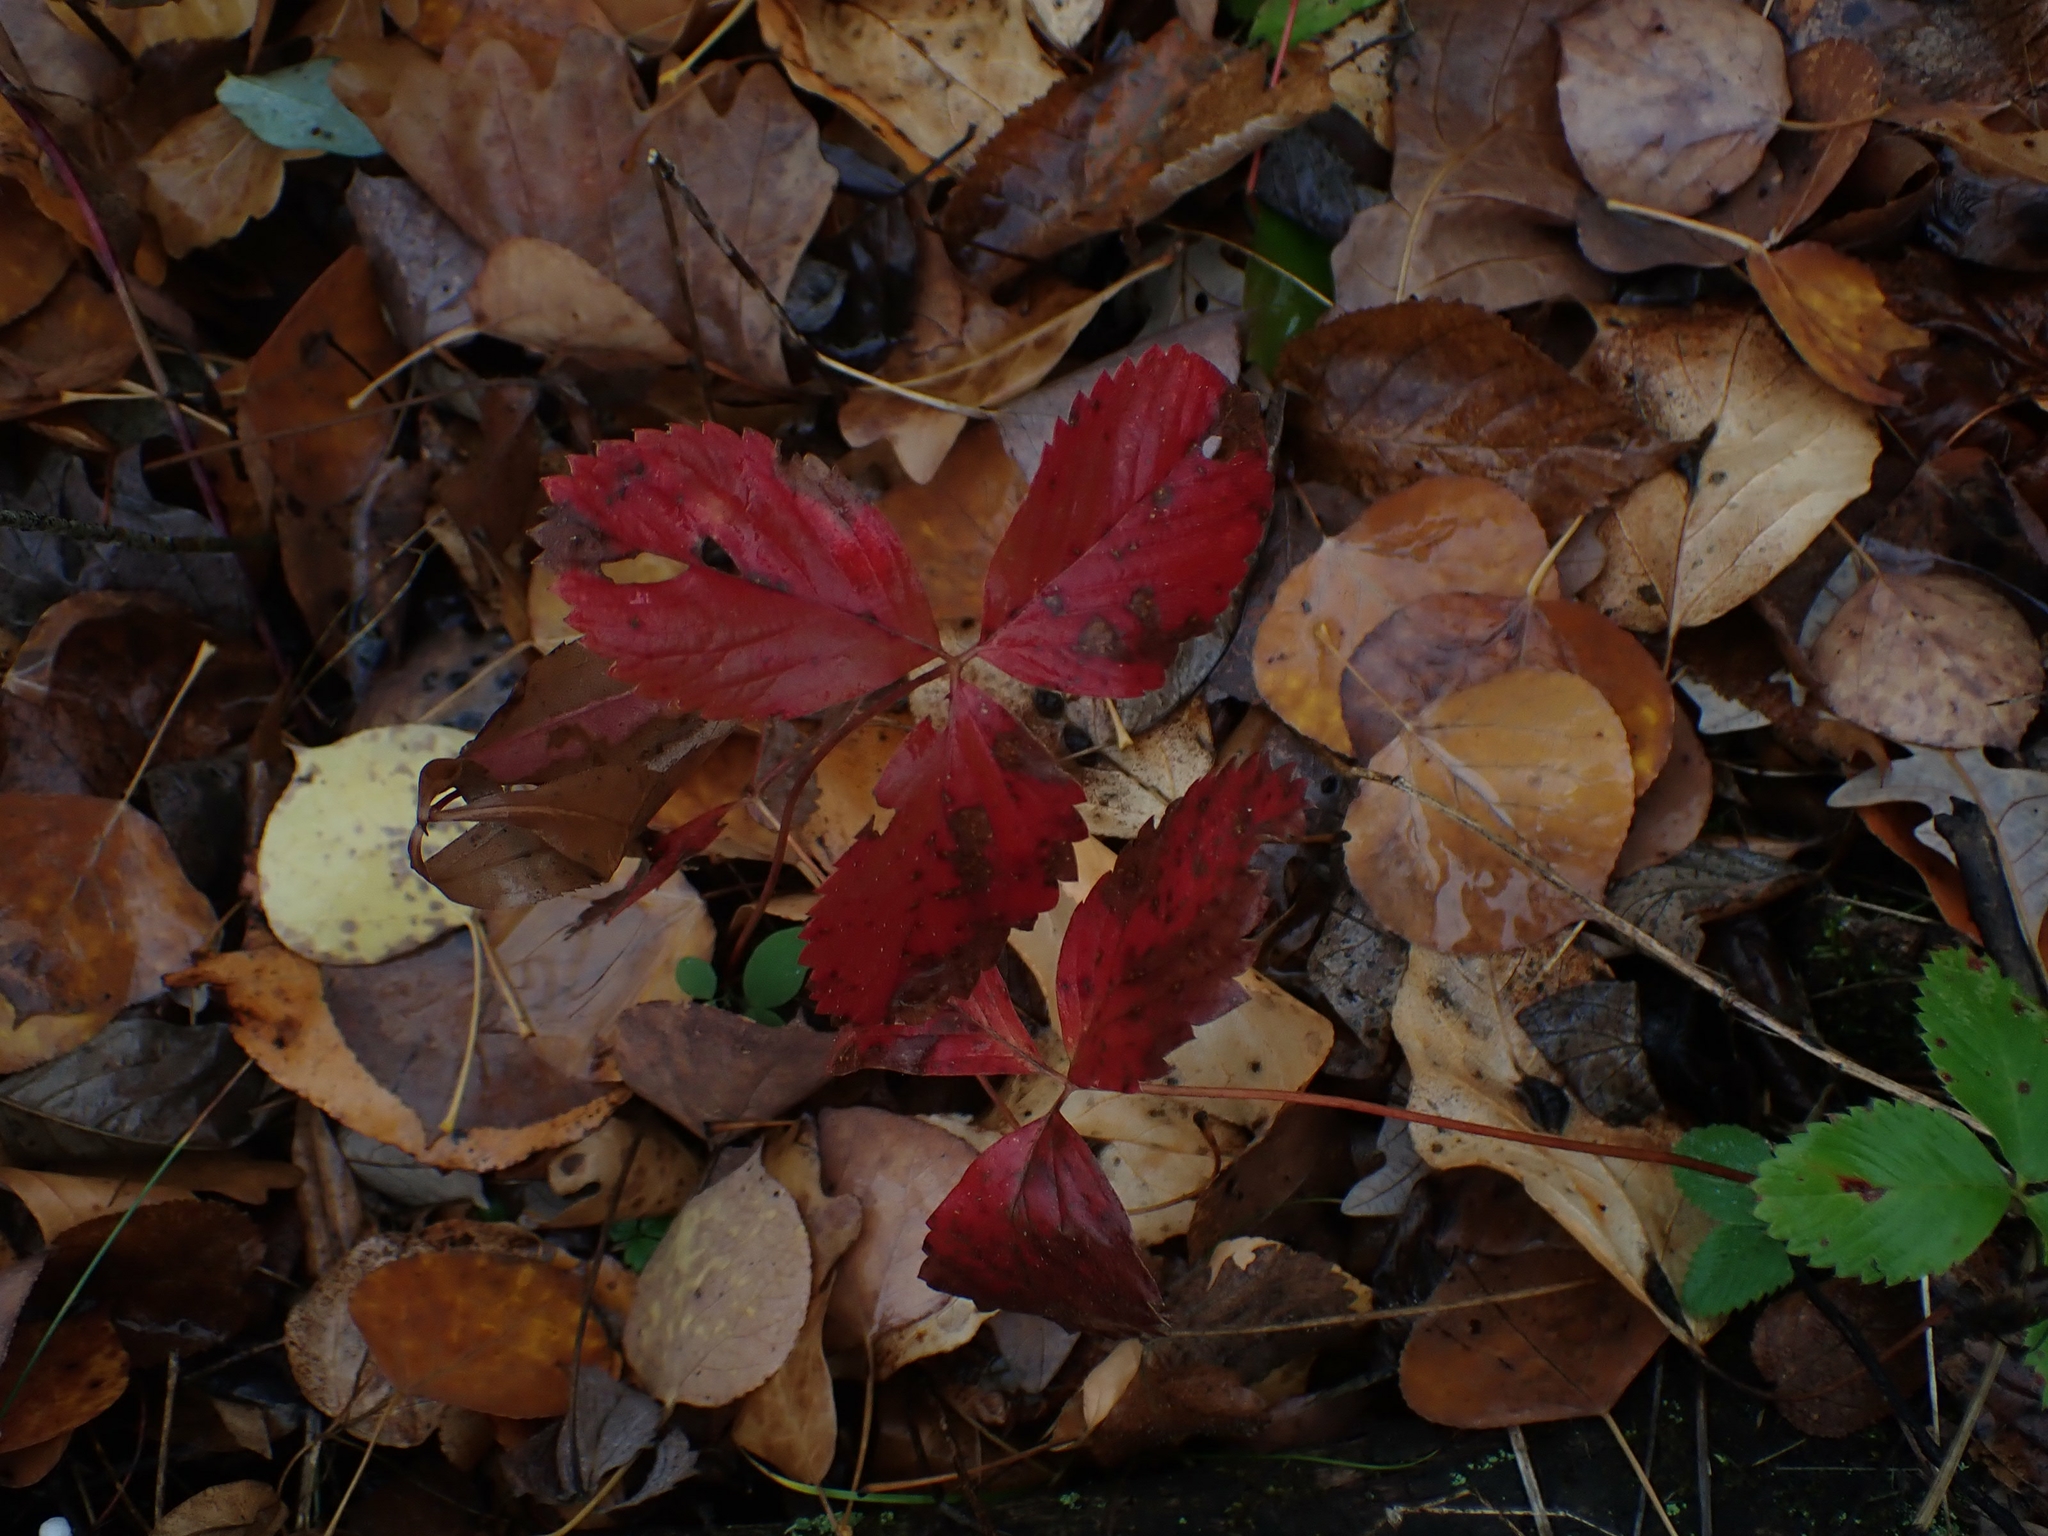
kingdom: Plantae
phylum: Tracheophyta
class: Magnoliopsida
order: Rosales
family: Rosaceae
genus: Fragaria
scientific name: Fragaria virginiana
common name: Thickleaved wild strawberry
